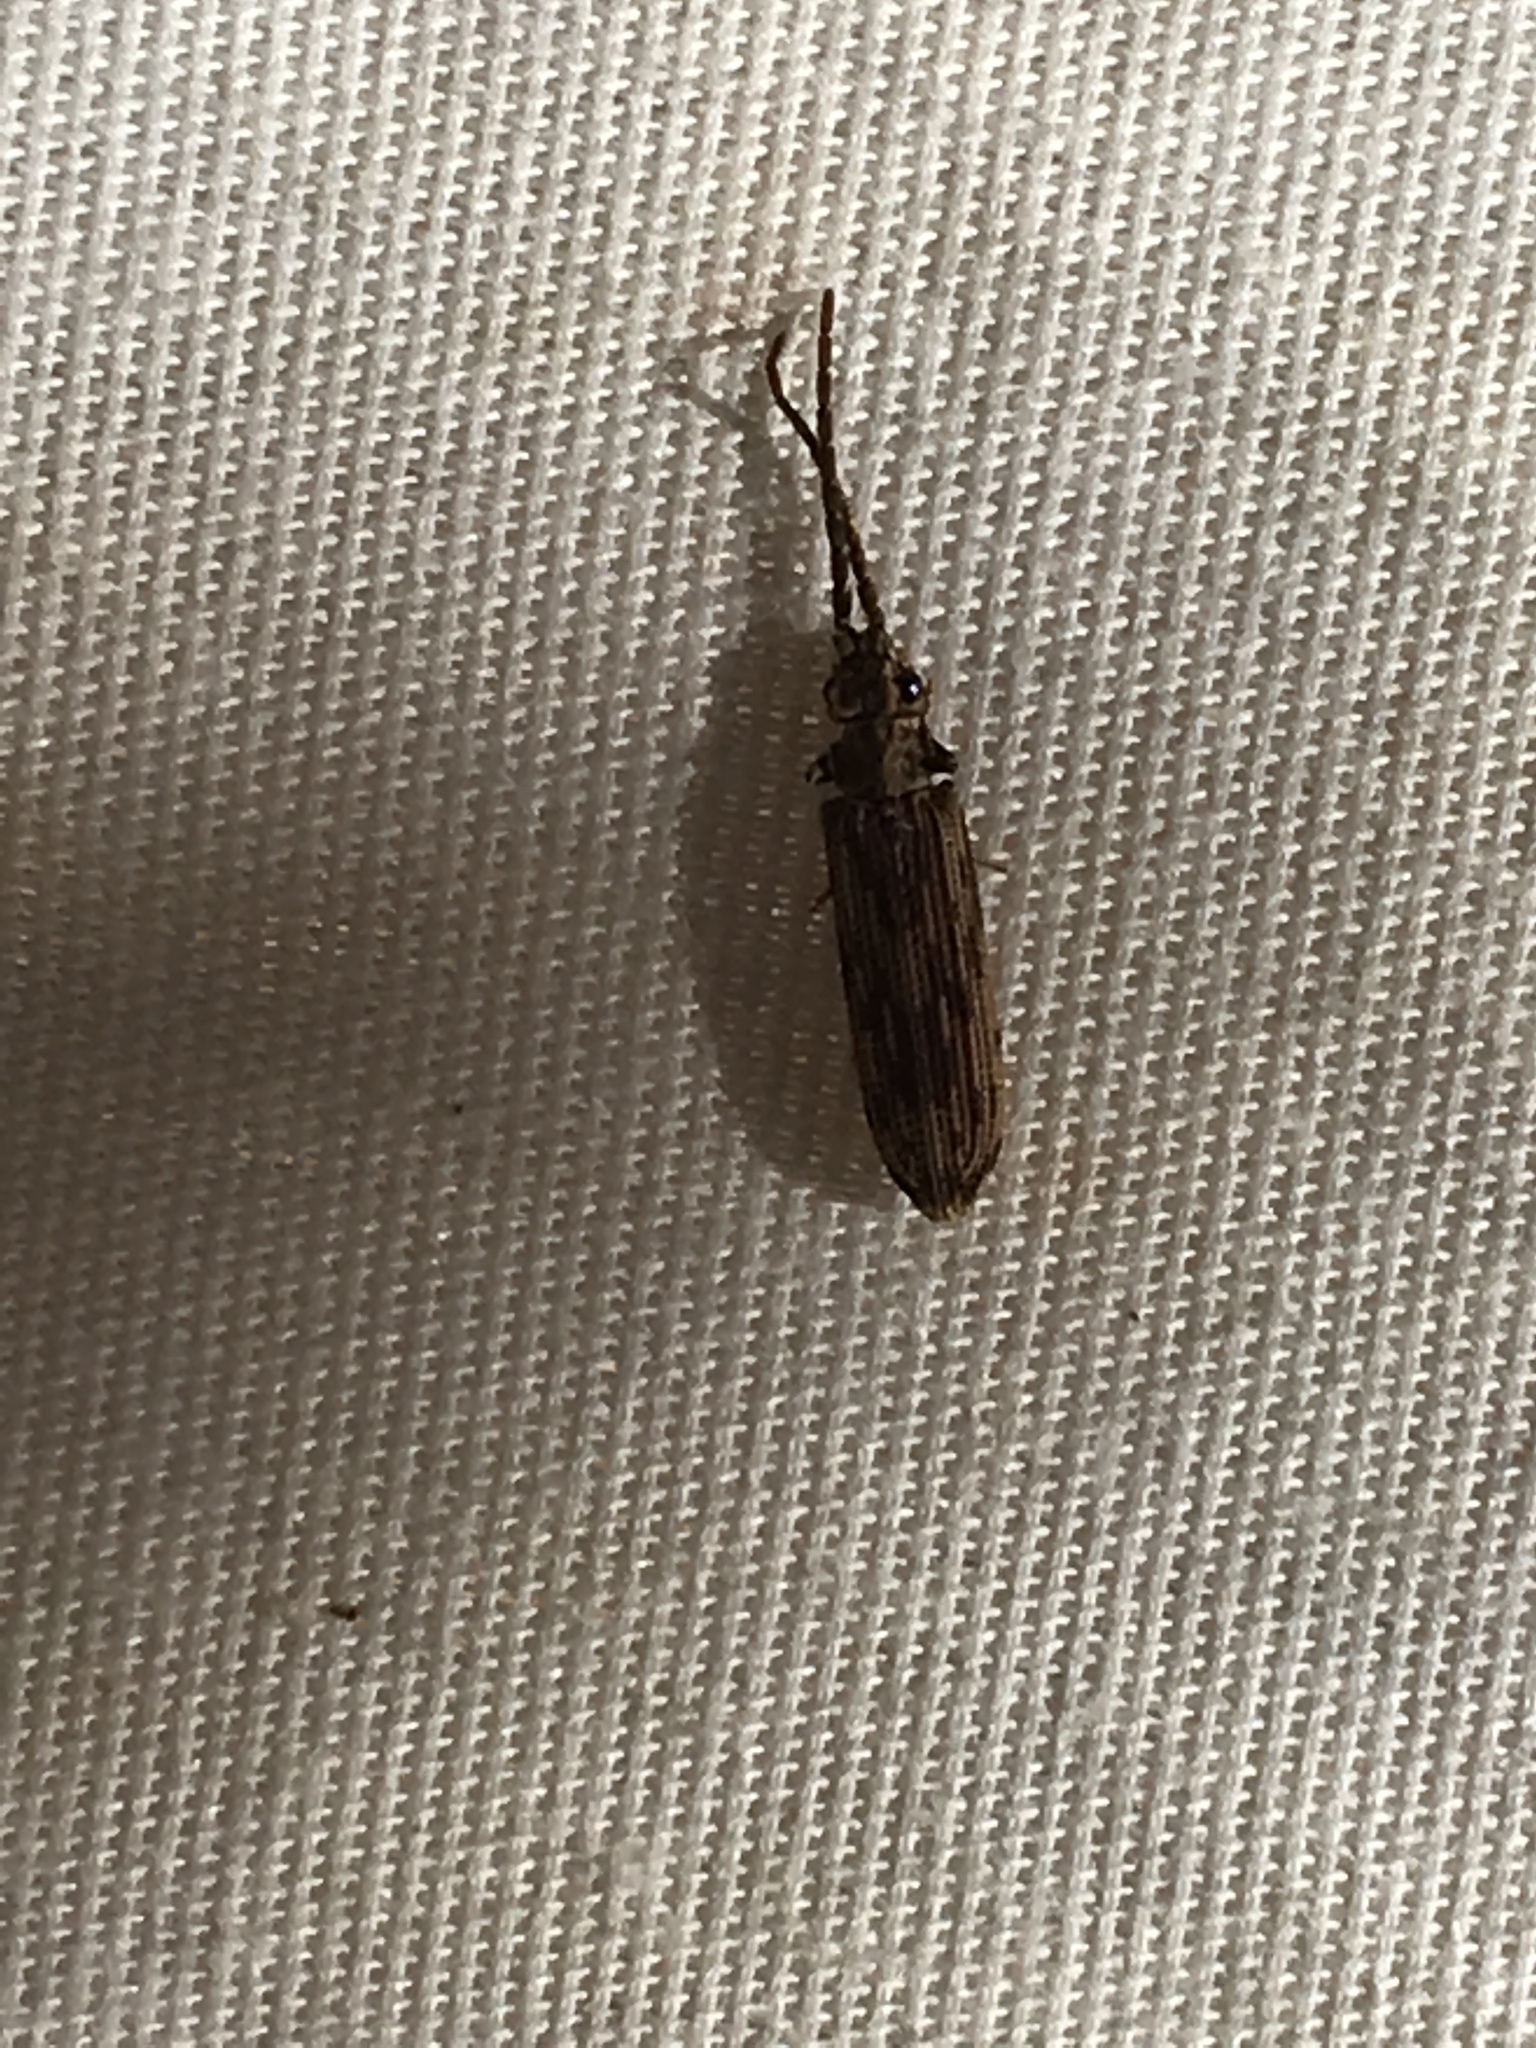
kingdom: Animalia
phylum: Arthropoda
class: Insecta
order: Coleoptera
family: Cupedidae
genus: Tenomerga
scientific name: Tenomerga cinerea
